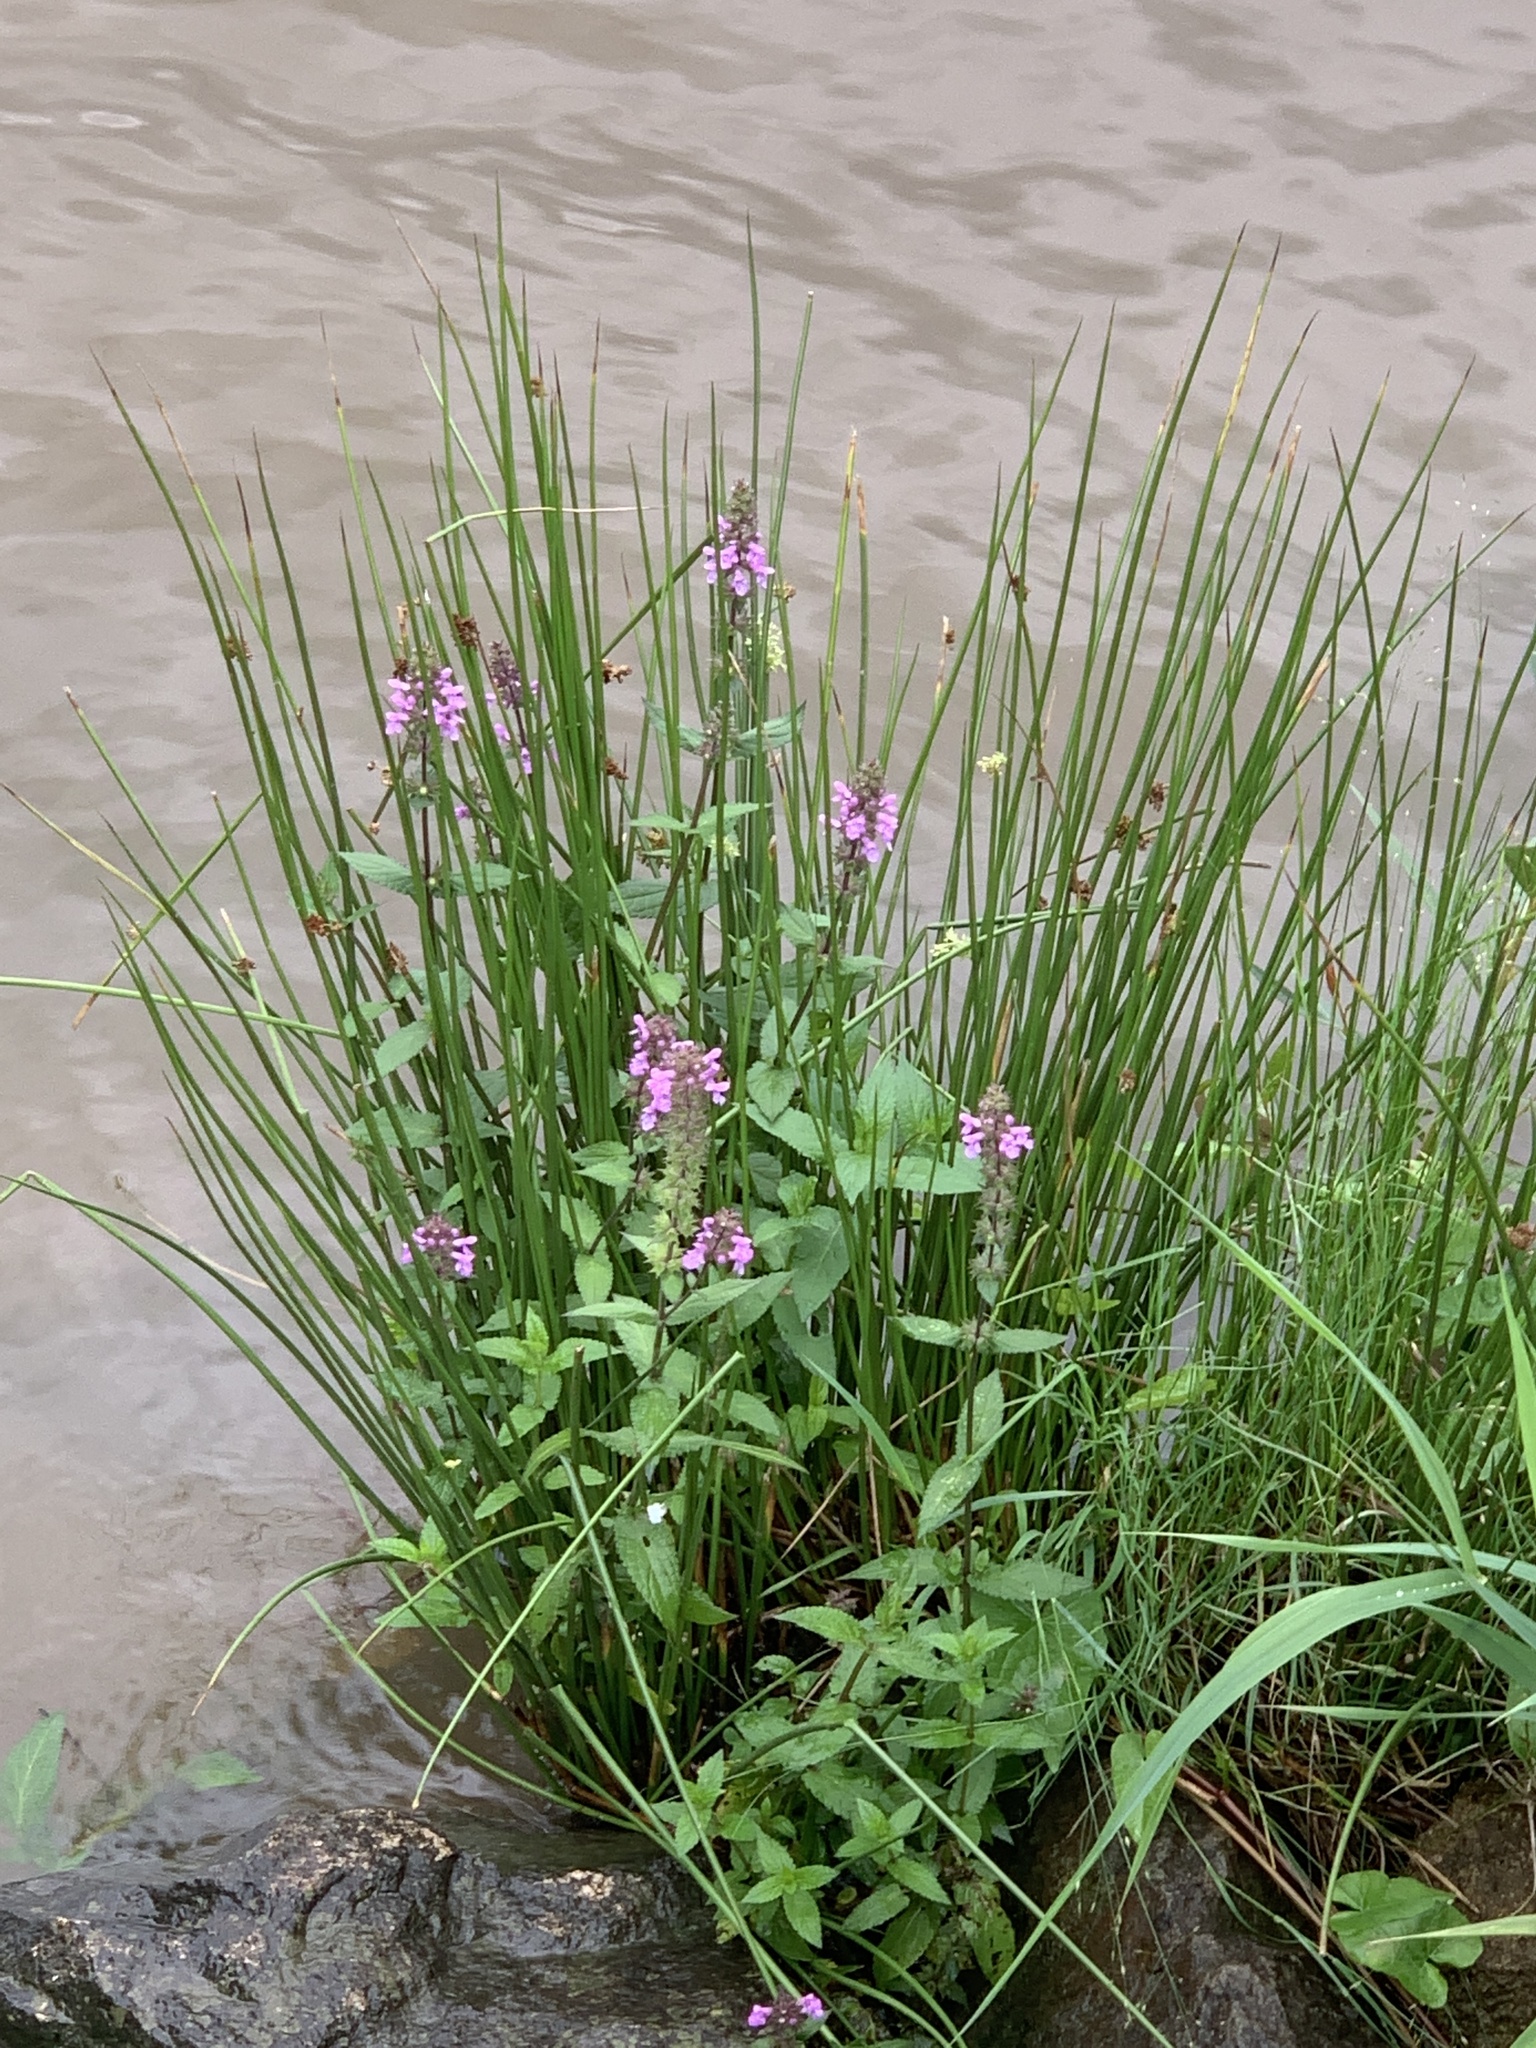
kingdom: Plantae
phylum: Tracheophyta
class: Magnoliopsida
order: Lamiales
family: Lamiaceae
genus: Stachys
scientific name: Stachys palustris
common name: Marsh woundwort
